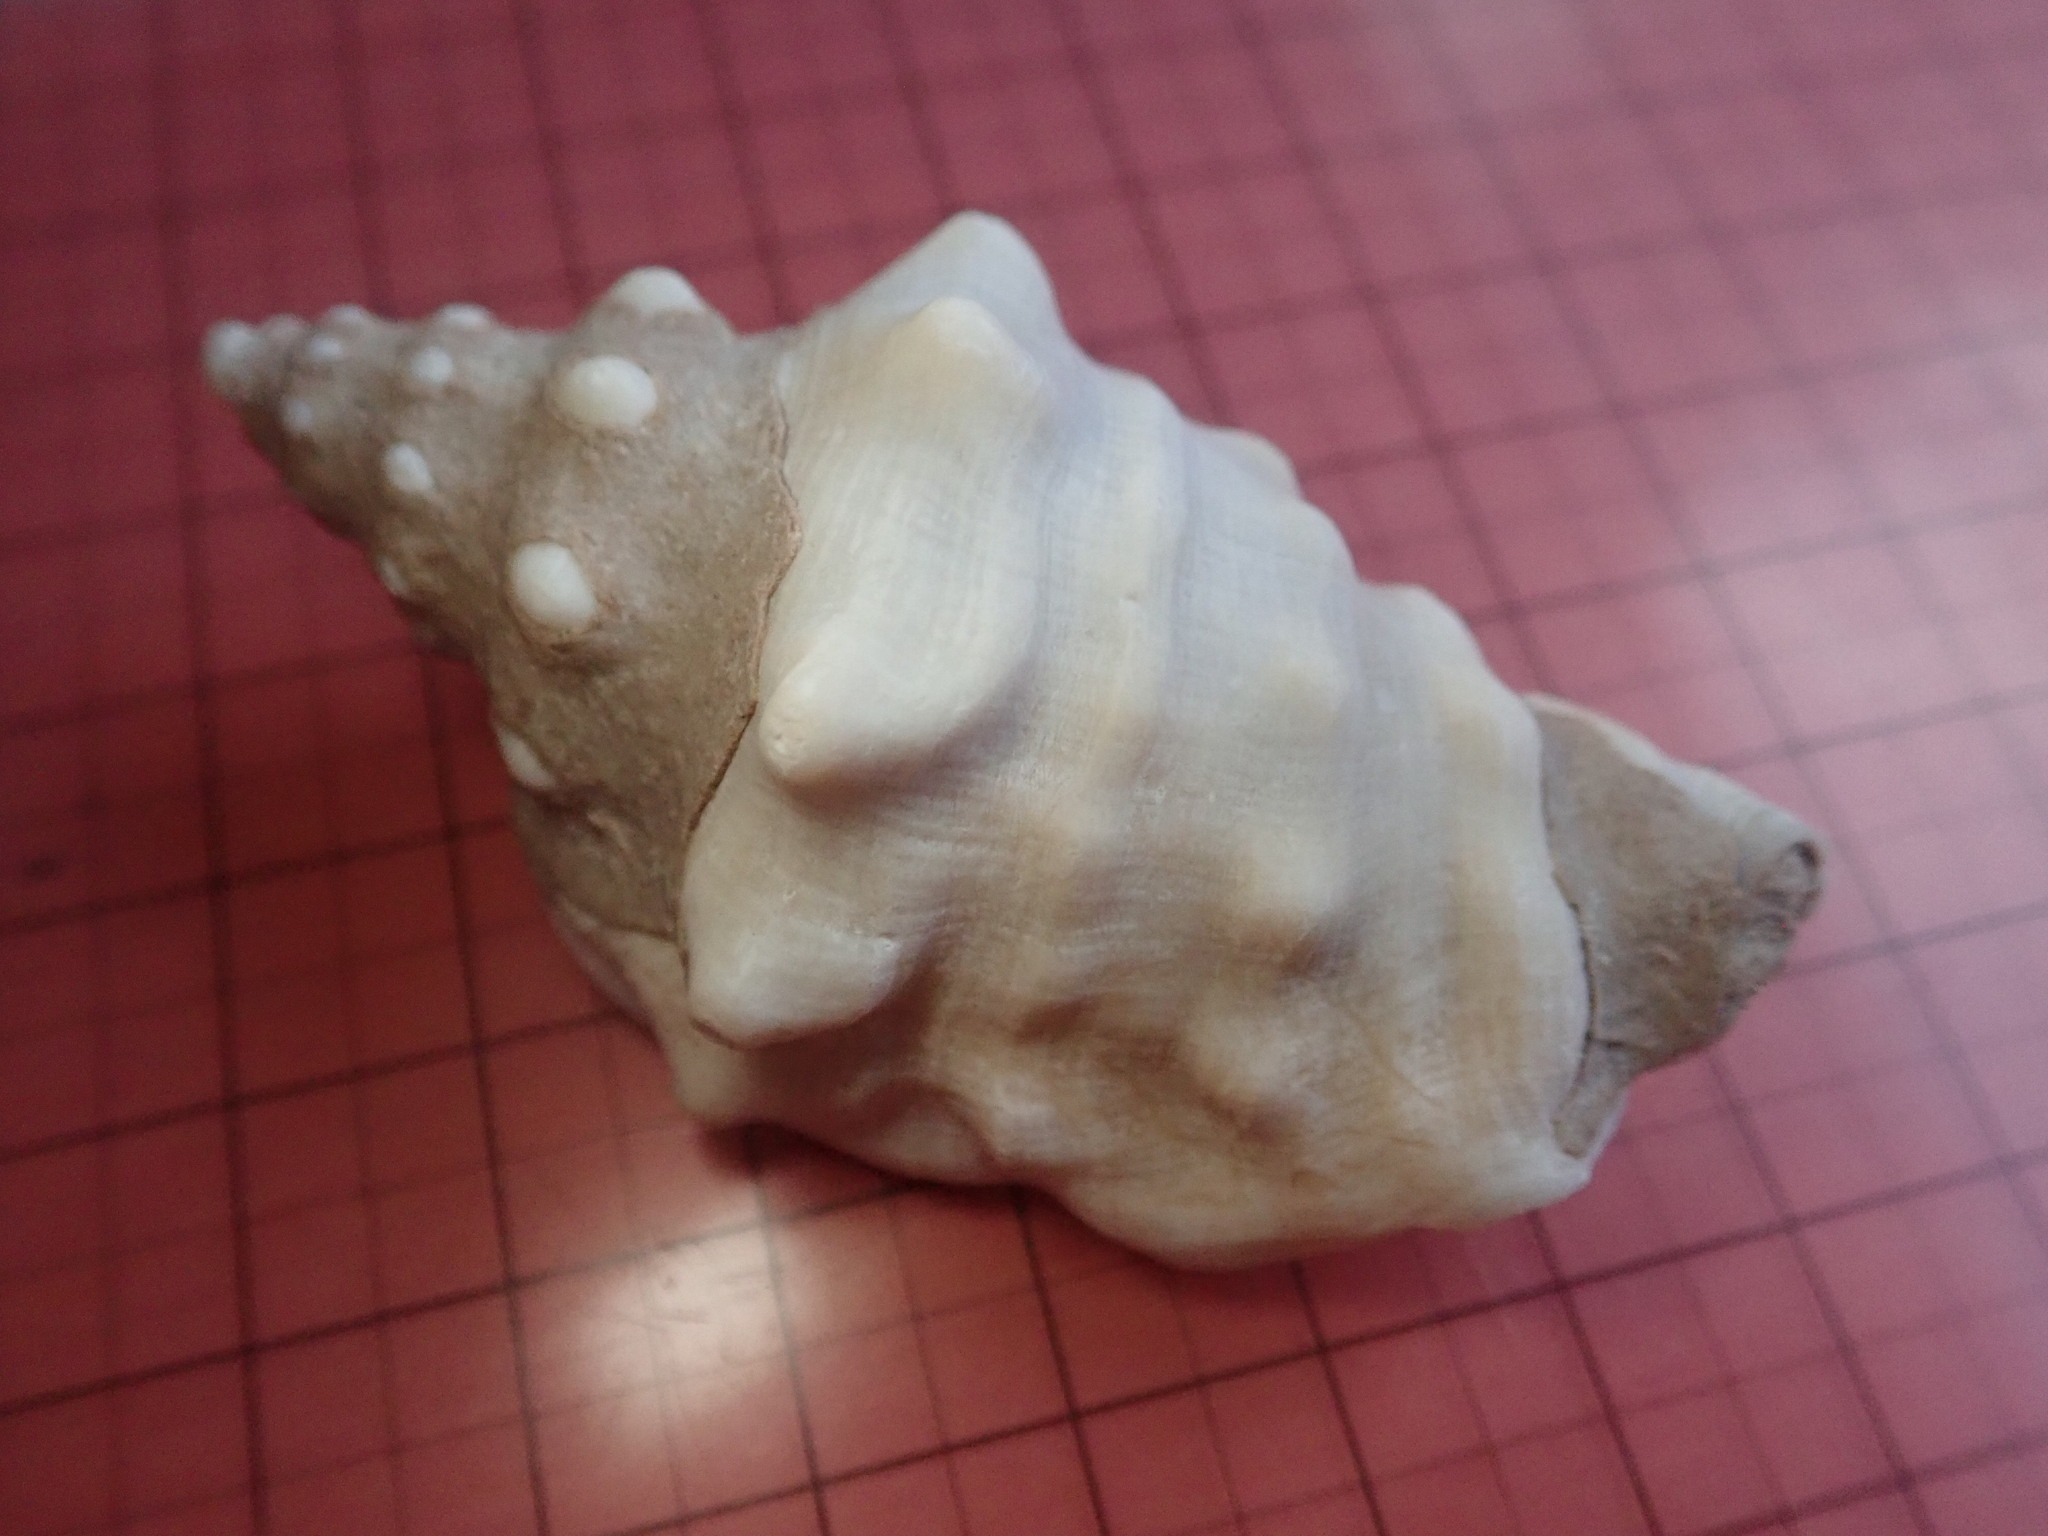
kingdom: Animalia
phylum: Mollusca
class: Gastropoda
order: Littorinimorpha
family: Strombidae
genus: Persististrombus
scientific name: Persististrombus granulatus
